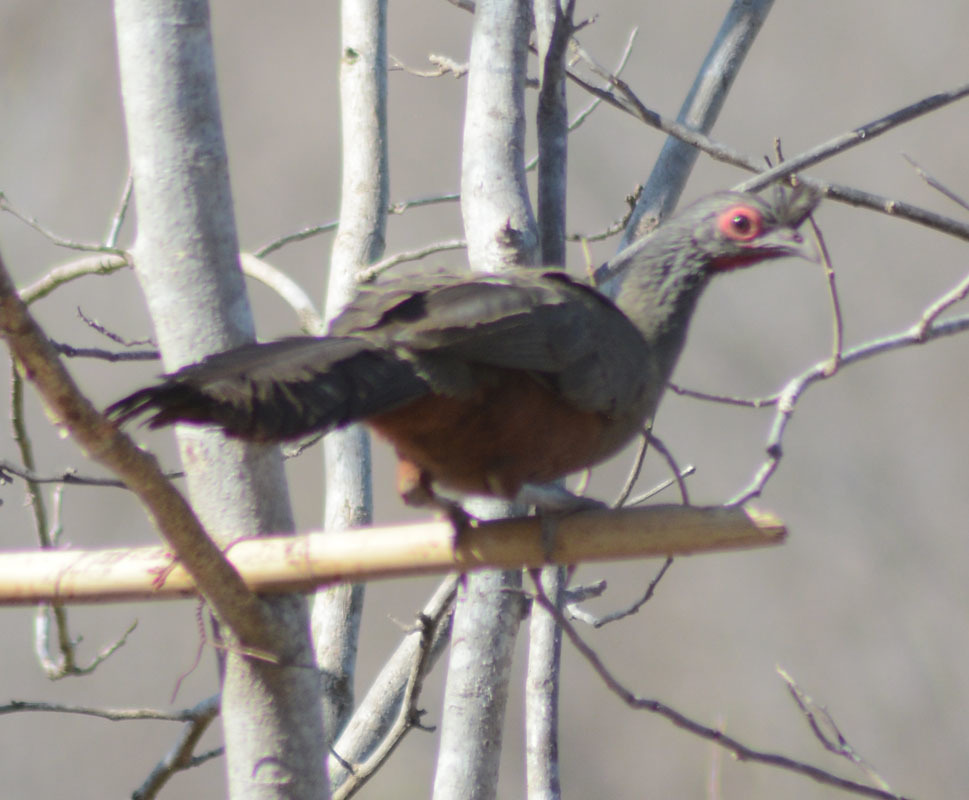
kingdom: Animalia
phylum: Chordata
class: Aves
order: Galliformes
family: Cracidae
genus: Ortalis
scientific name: Ortalis wagleri
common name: Rufous-bellied chachalaca
